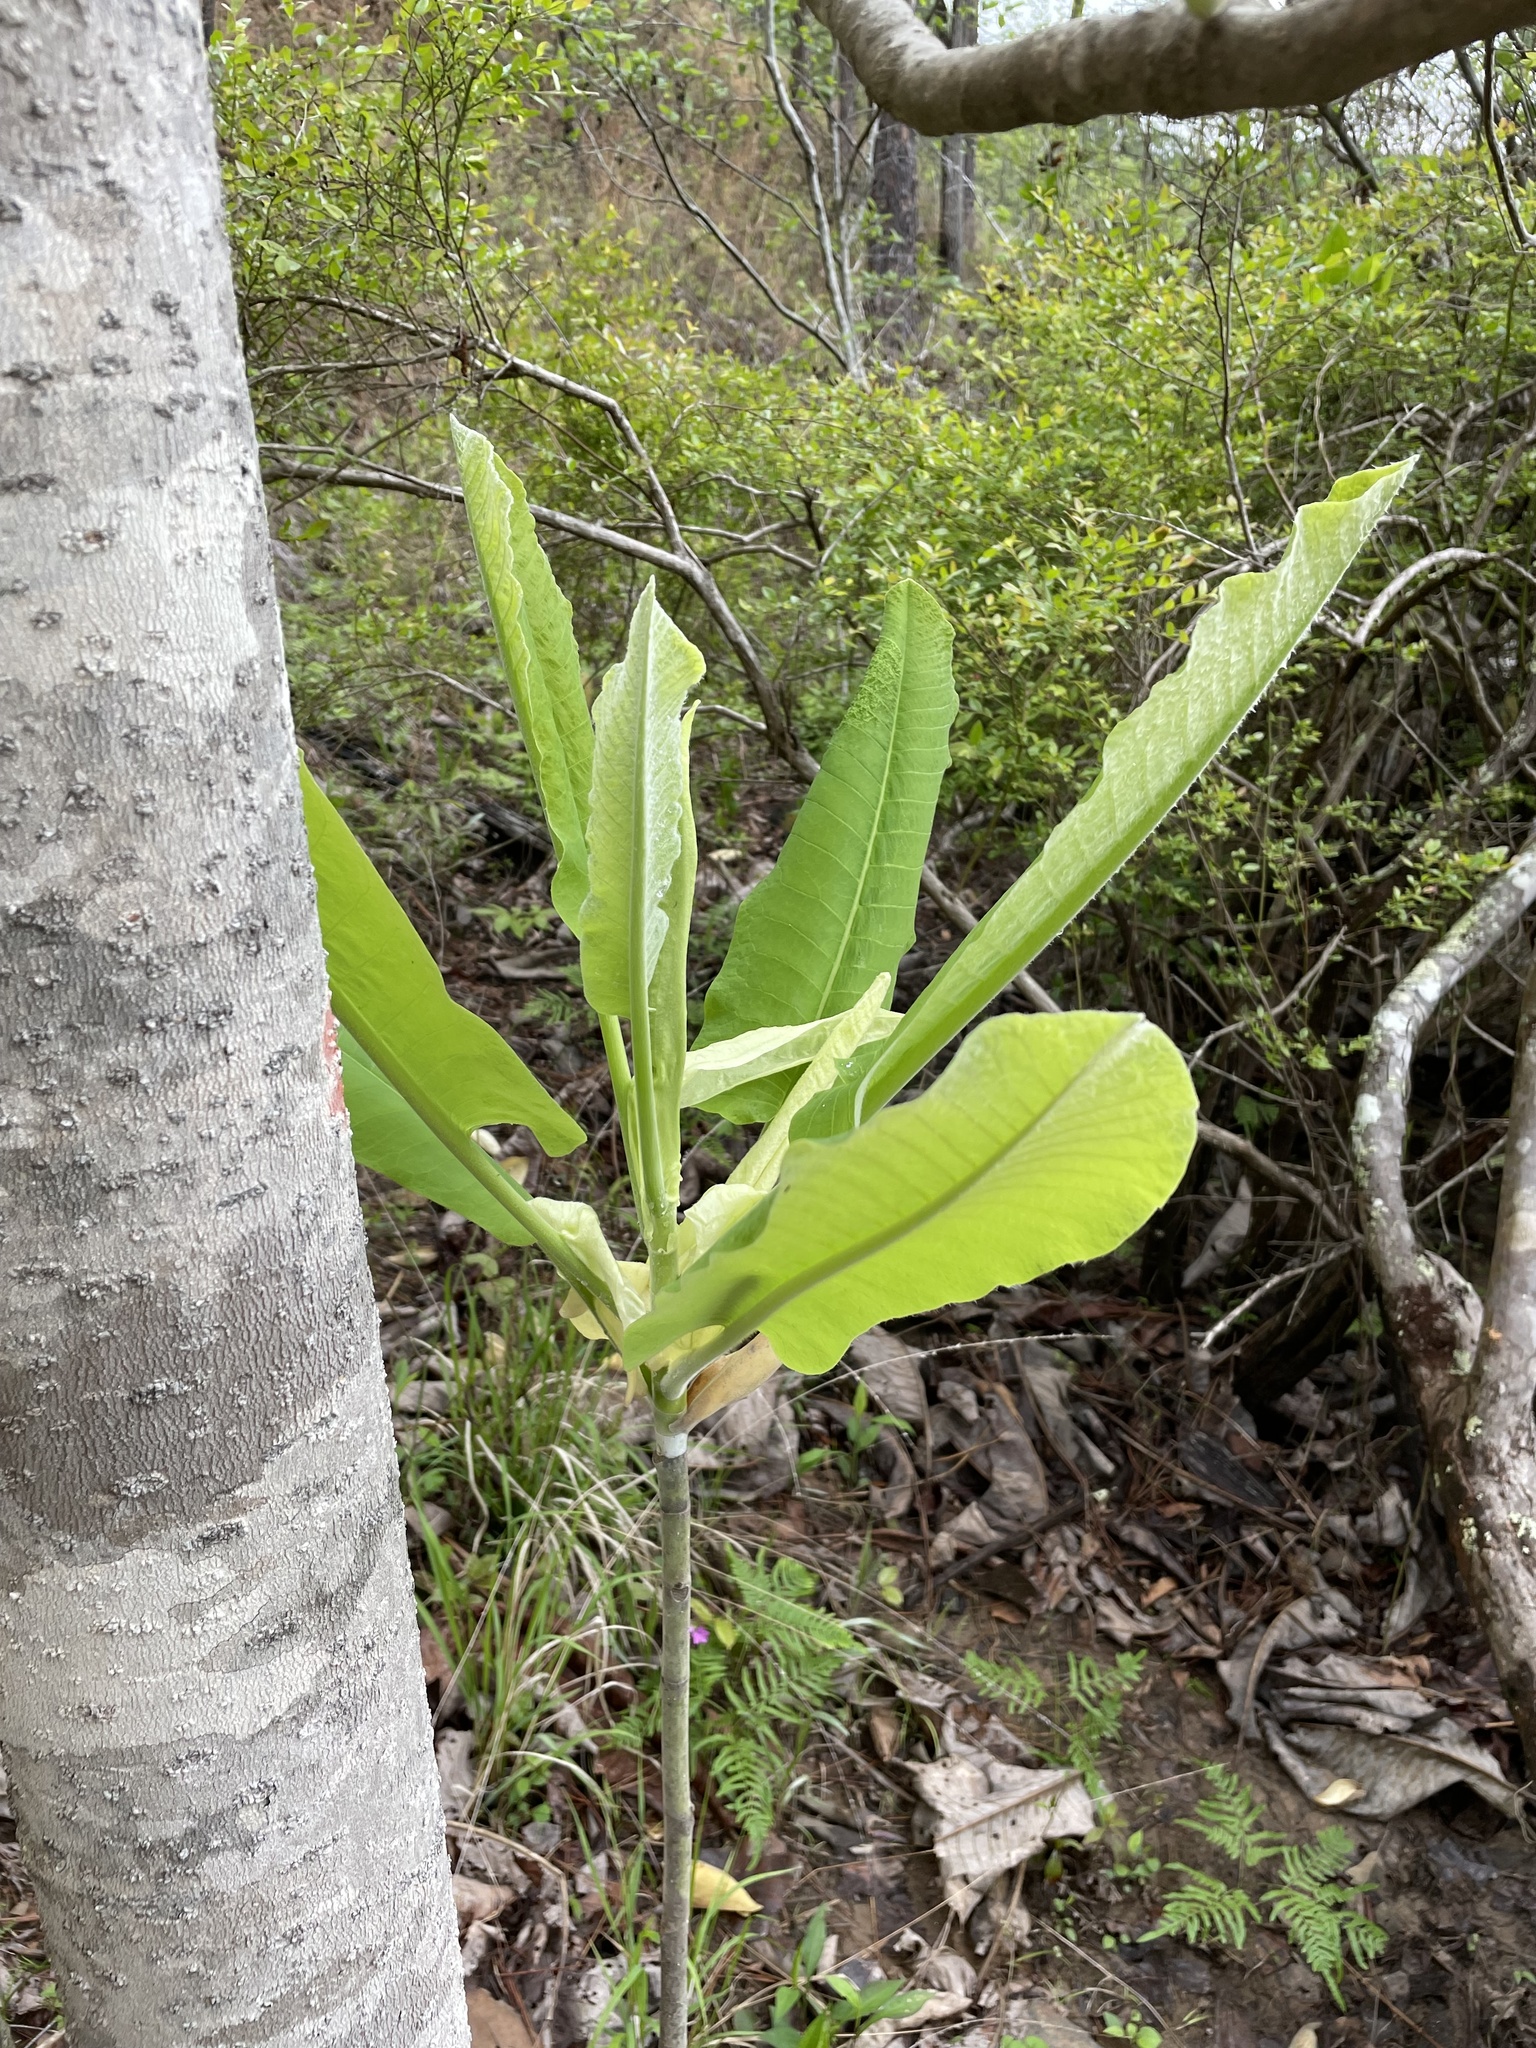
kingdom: Plantae
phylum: Tracheophyta
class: Magnoliopsida
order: Magnoliales
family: Magnoliaceae
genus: Magnolia
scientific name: Magnolia macrophylla
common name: Big-leaf magnolia
